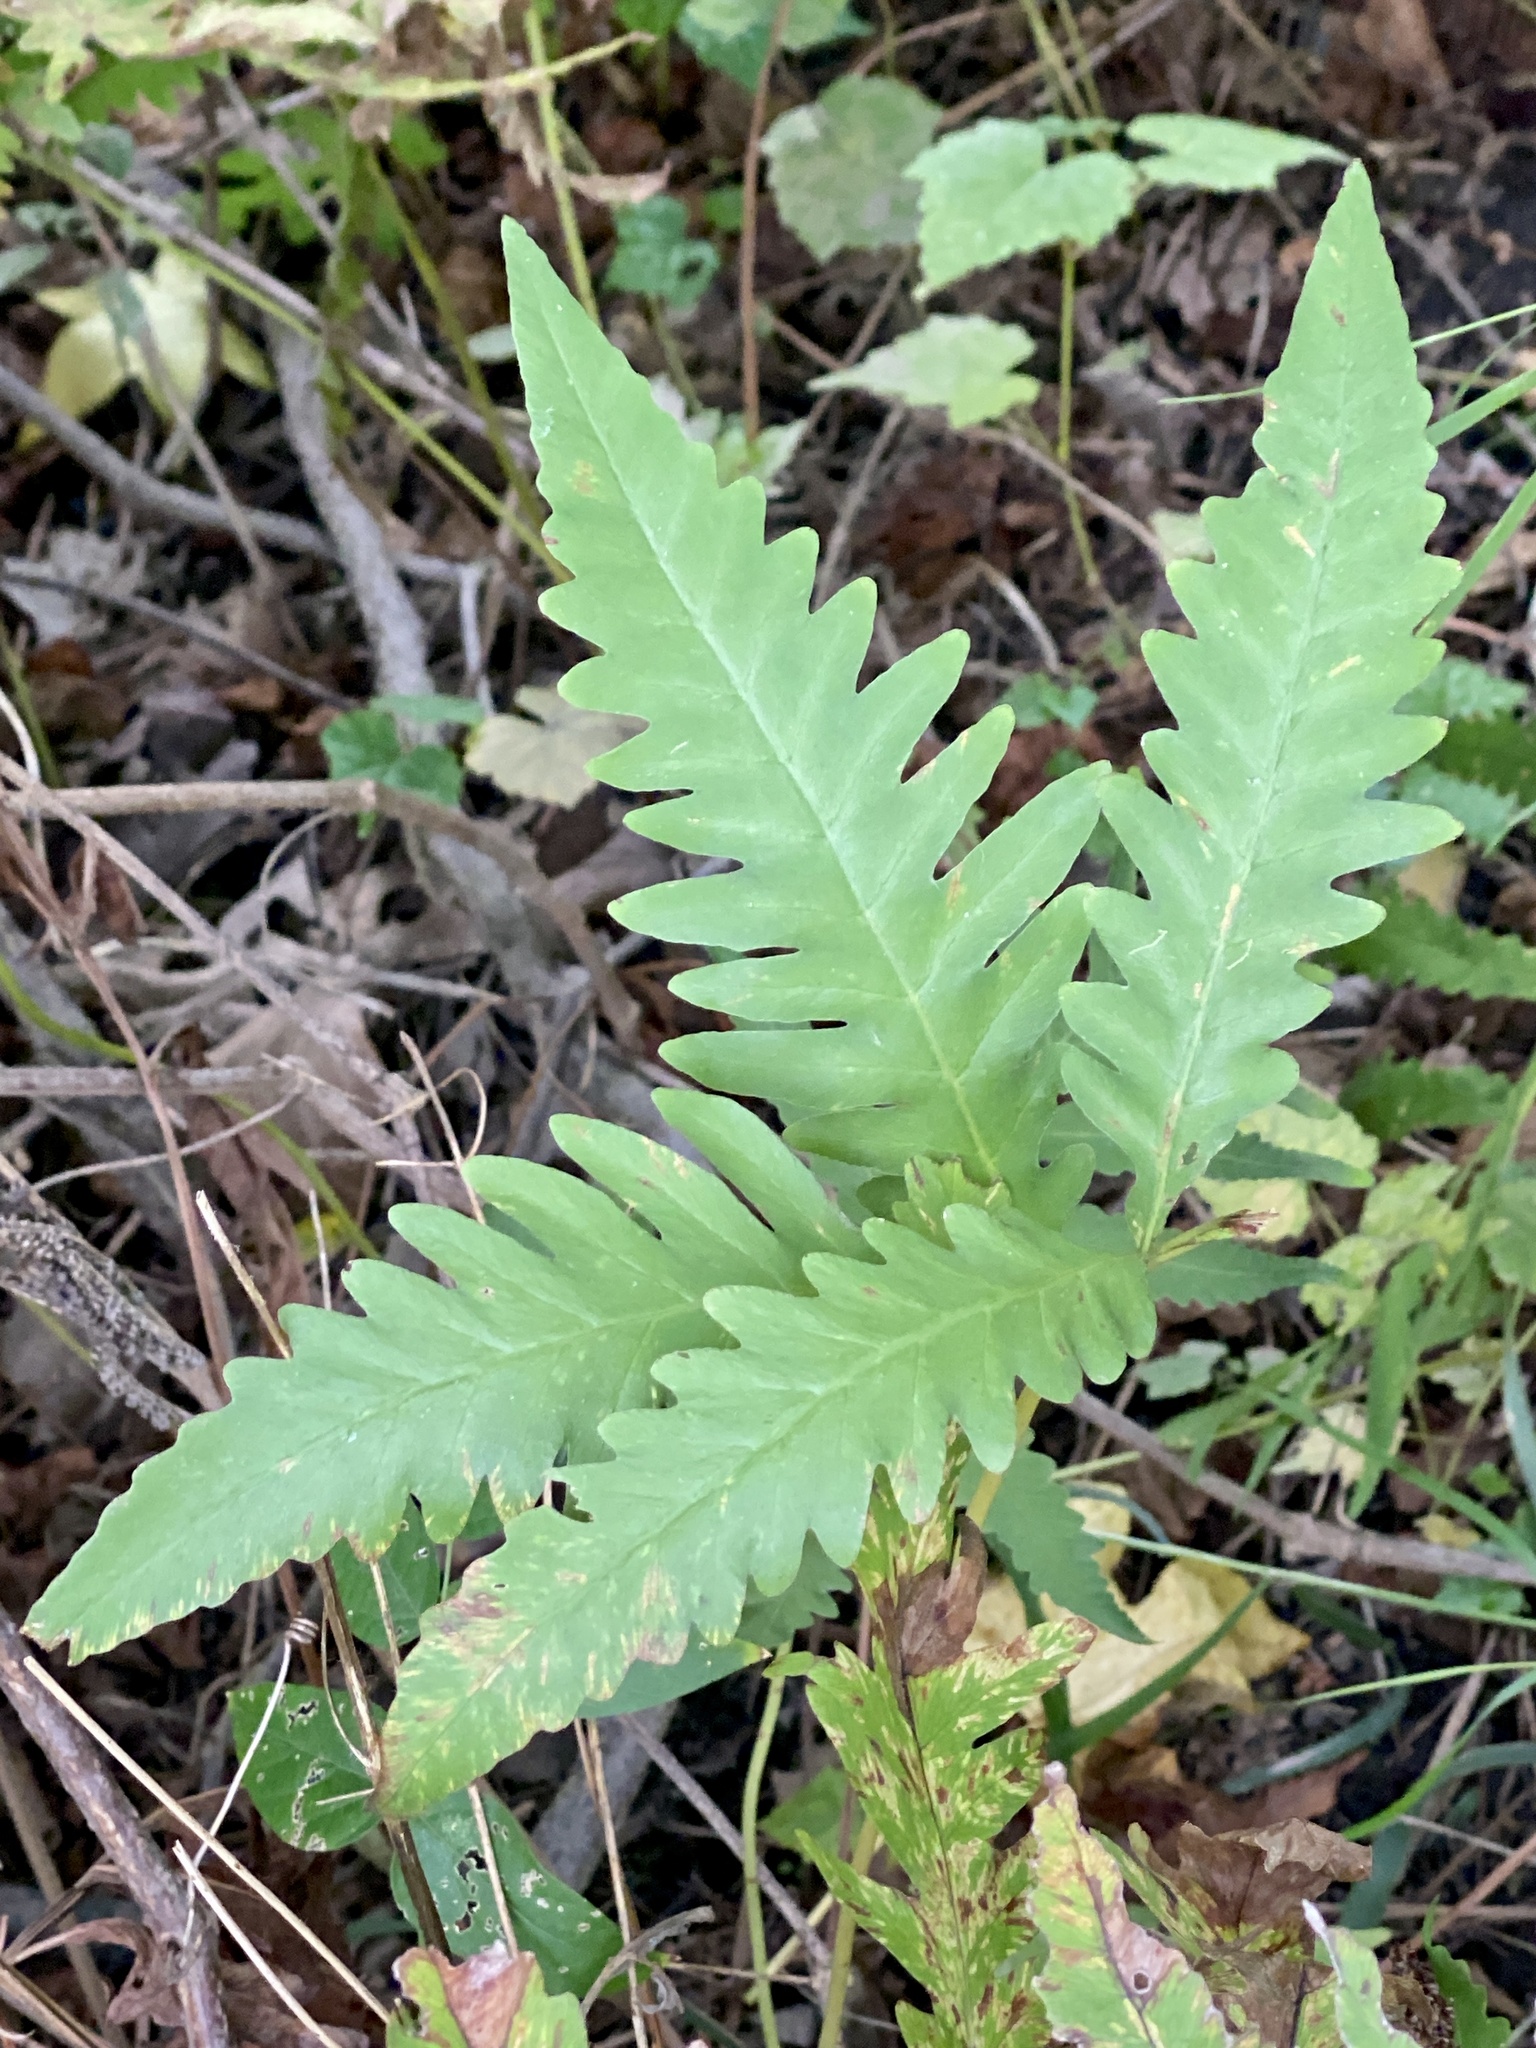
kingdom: Plantae
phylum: Tracheophyta
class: Polypodiopsida
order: Polypodiales
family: Onocleaceae
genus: Onoclea
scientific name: Onoclea sensibilis
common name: Sensitive fern
